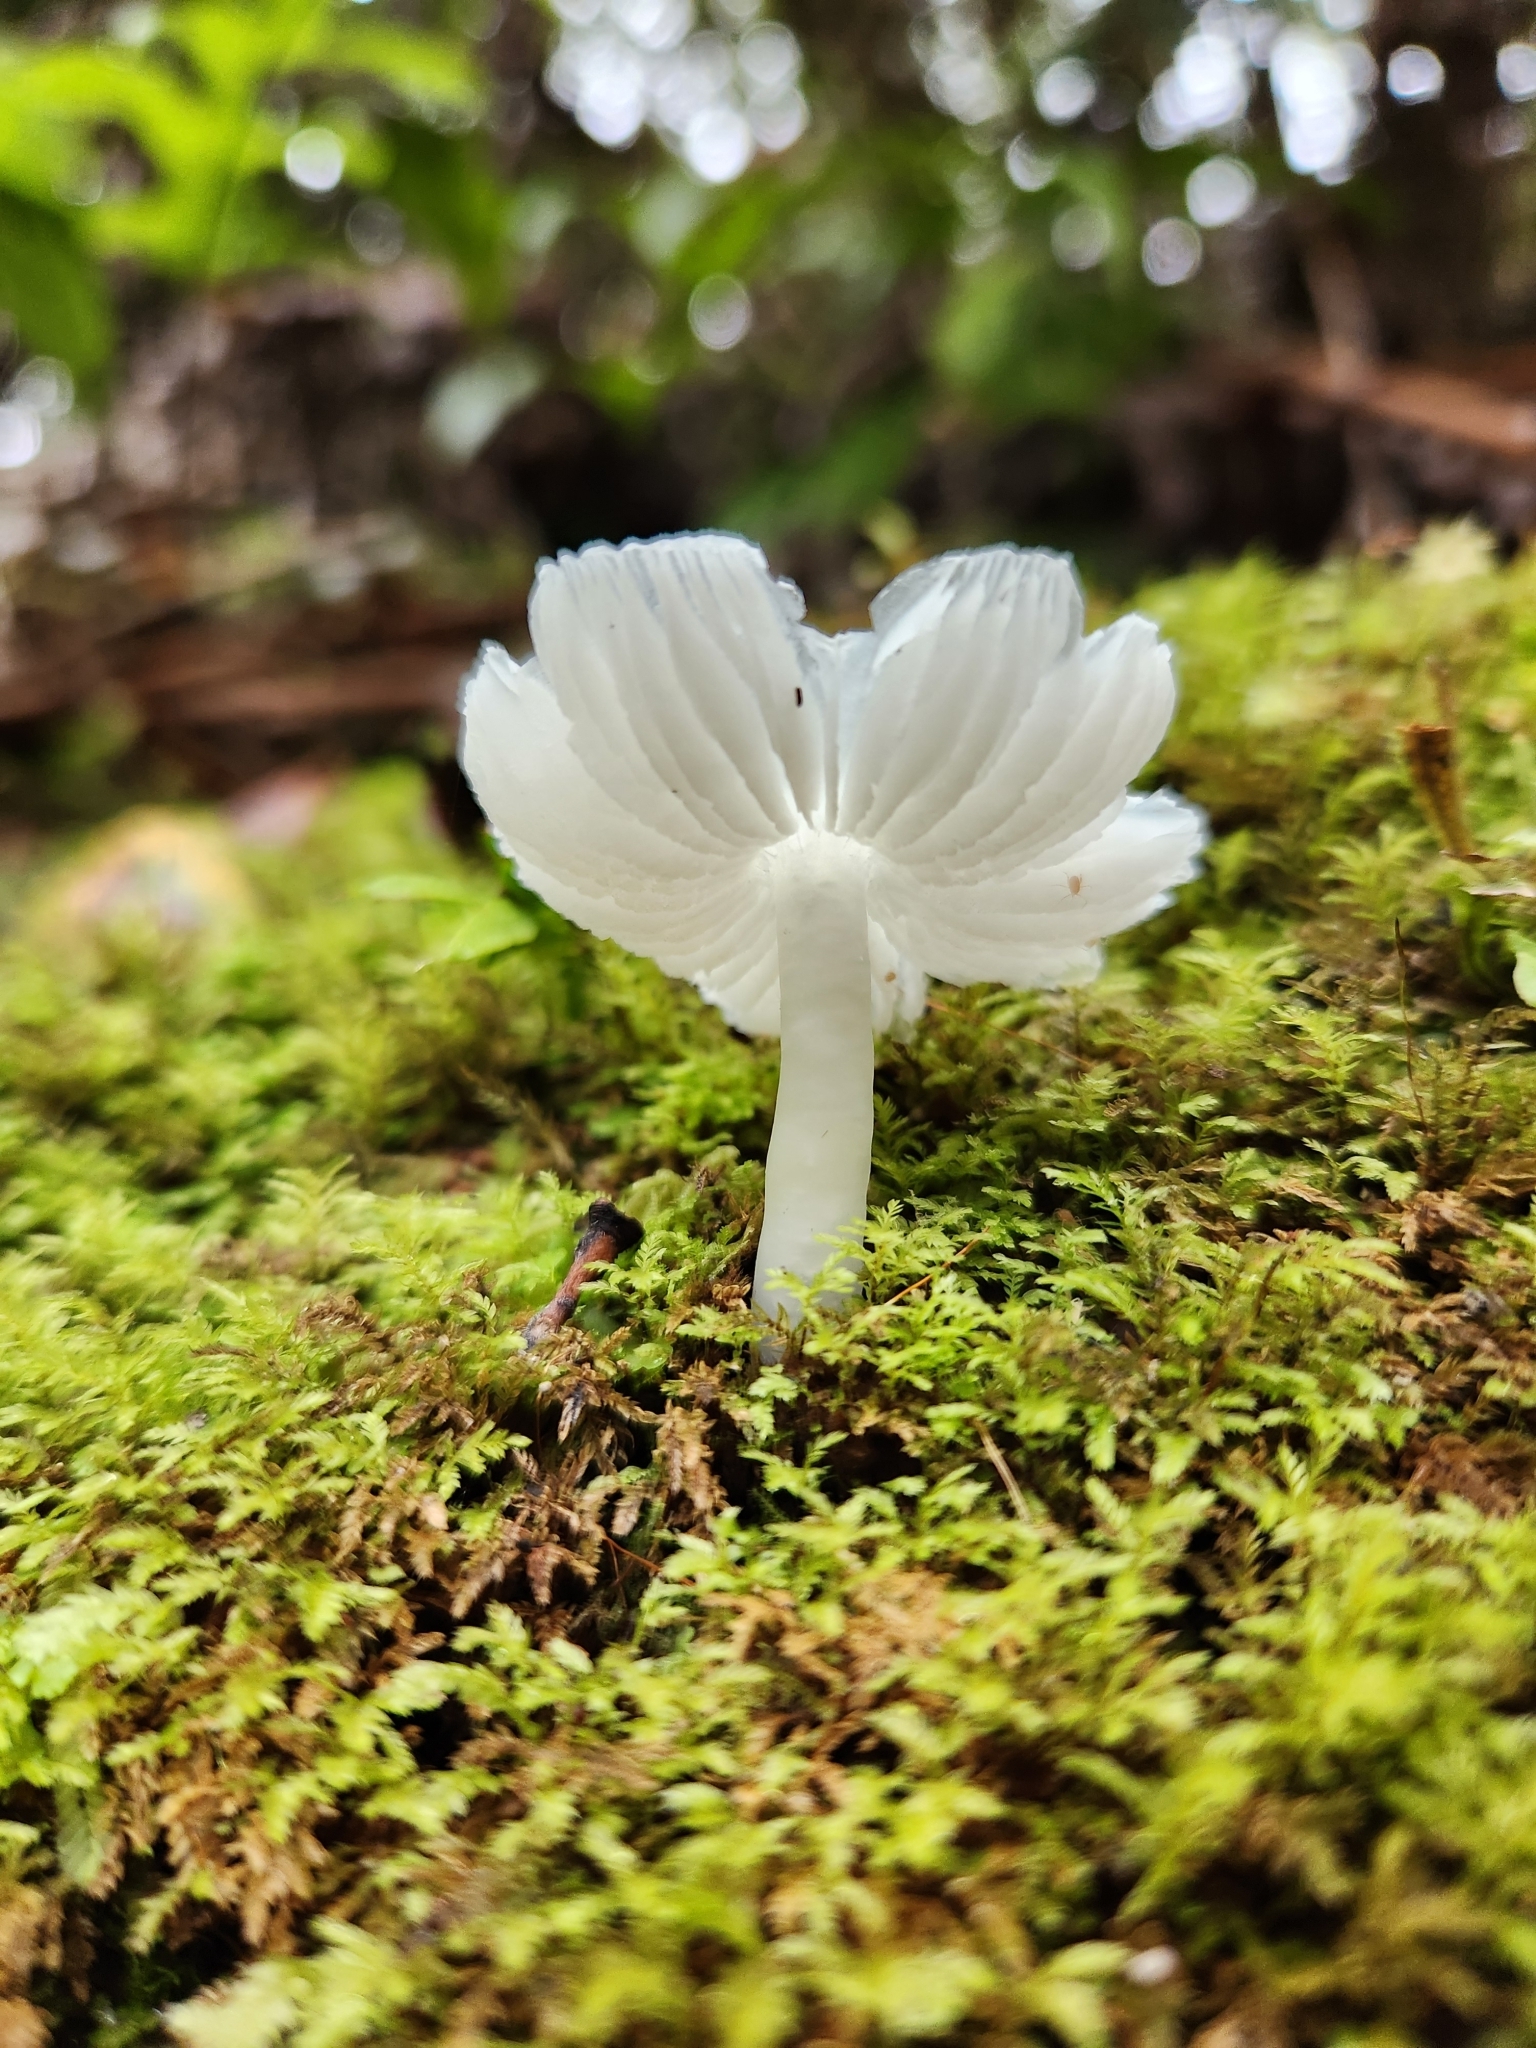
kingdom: Fungi
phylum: Basidiomycota
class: Agaricomycetes
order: Agaricales
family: Hygrophoraceae
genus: Humidicutis
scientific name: Humidicutis mavis
